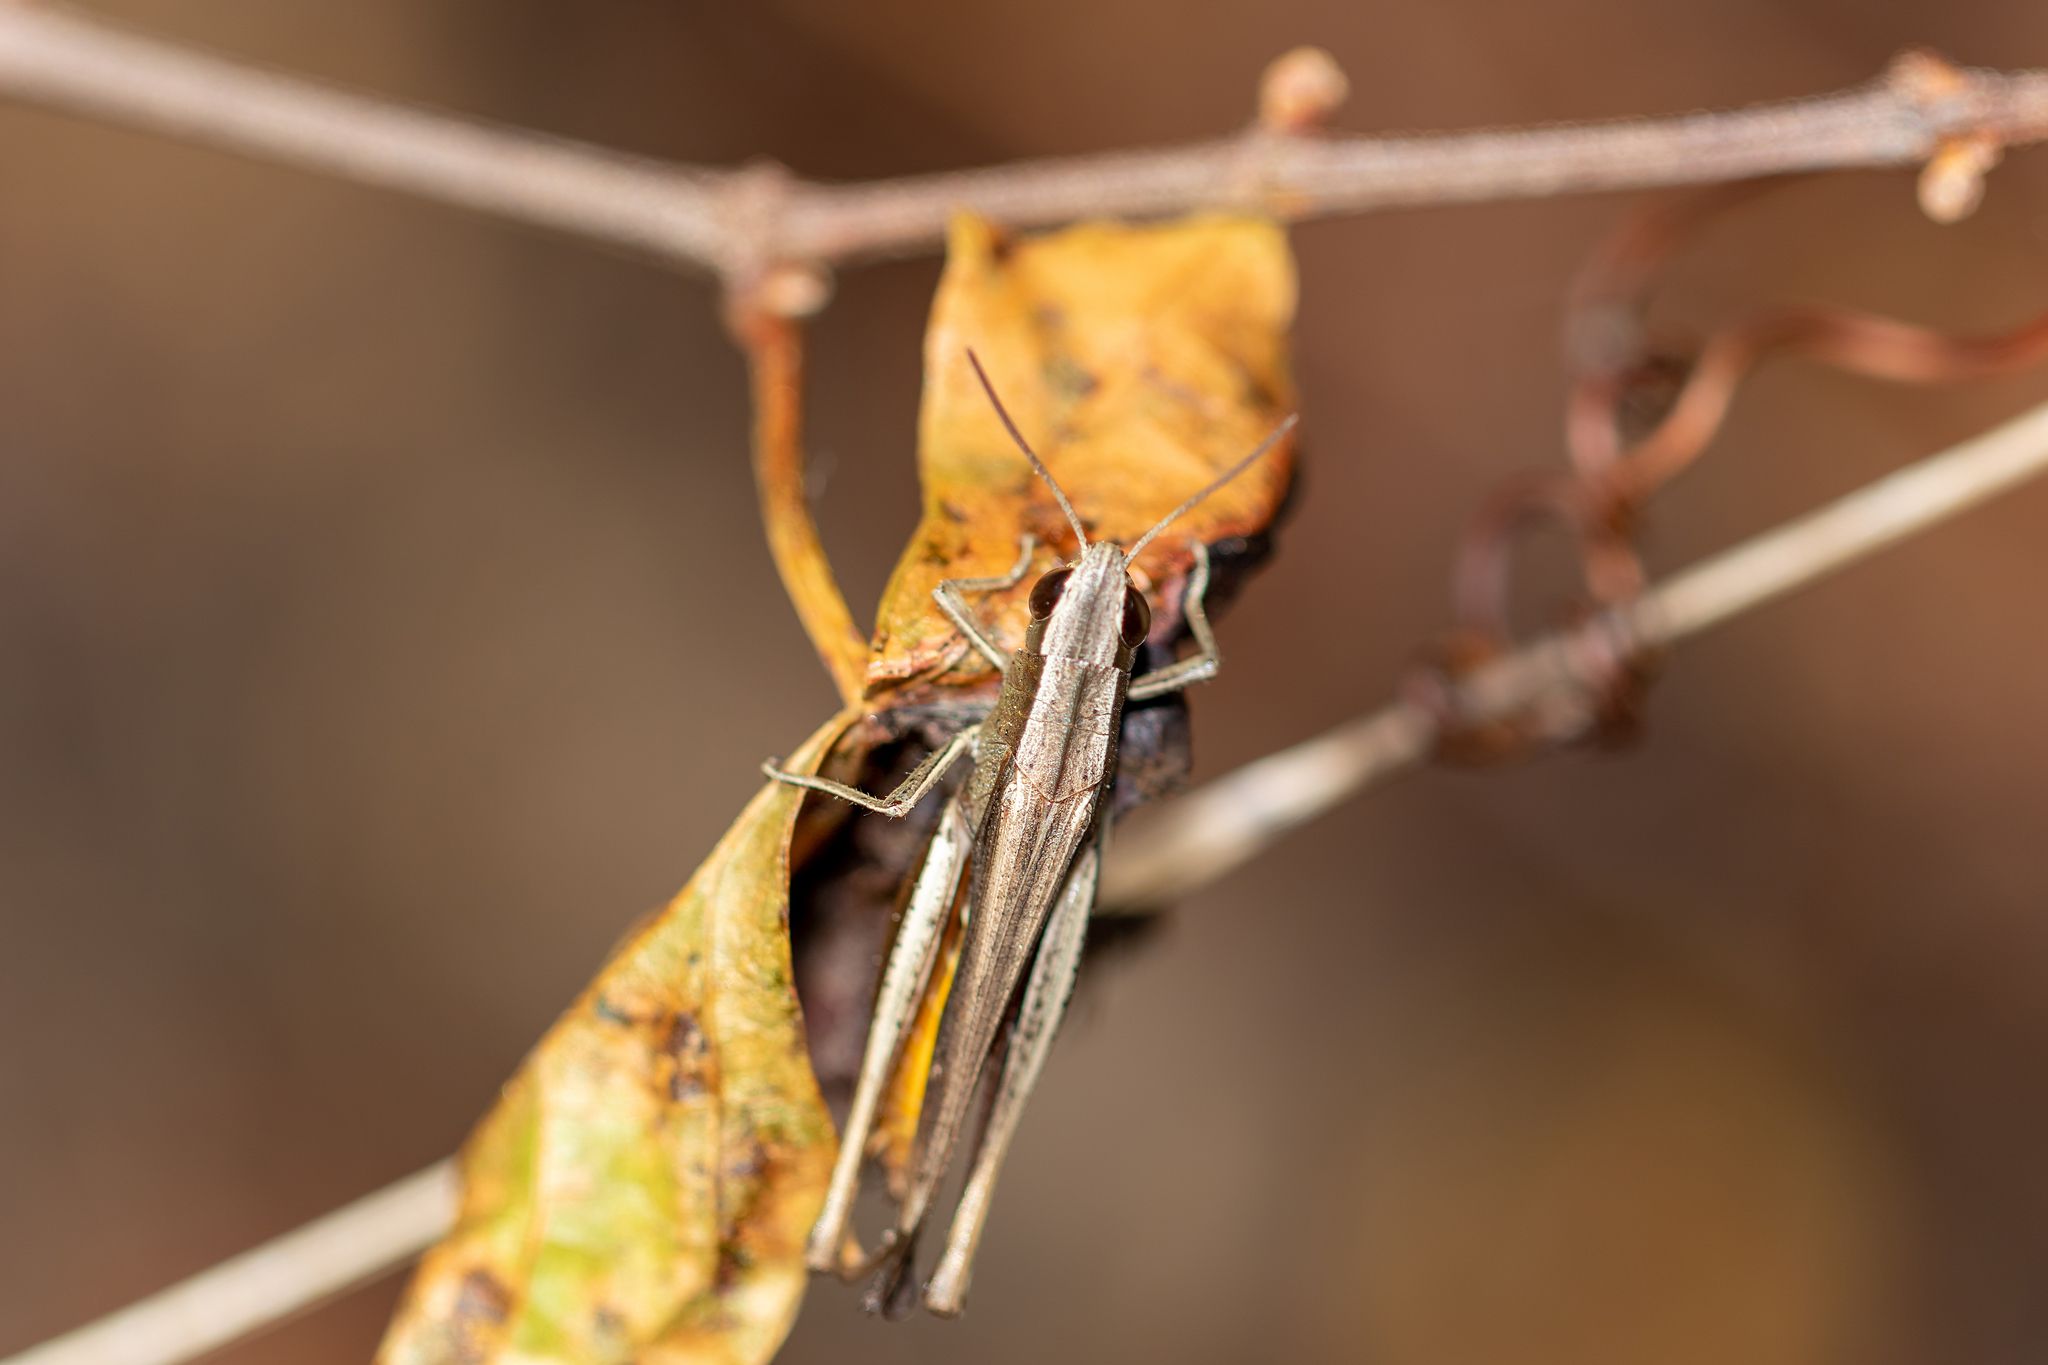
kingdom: Animalia
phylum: Arthropoda
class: Insecta
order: Orthoptera
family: Acrididae
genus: Amblytropidia
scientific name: Amblytropidia mysteca
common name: Brown winter grasshopper
